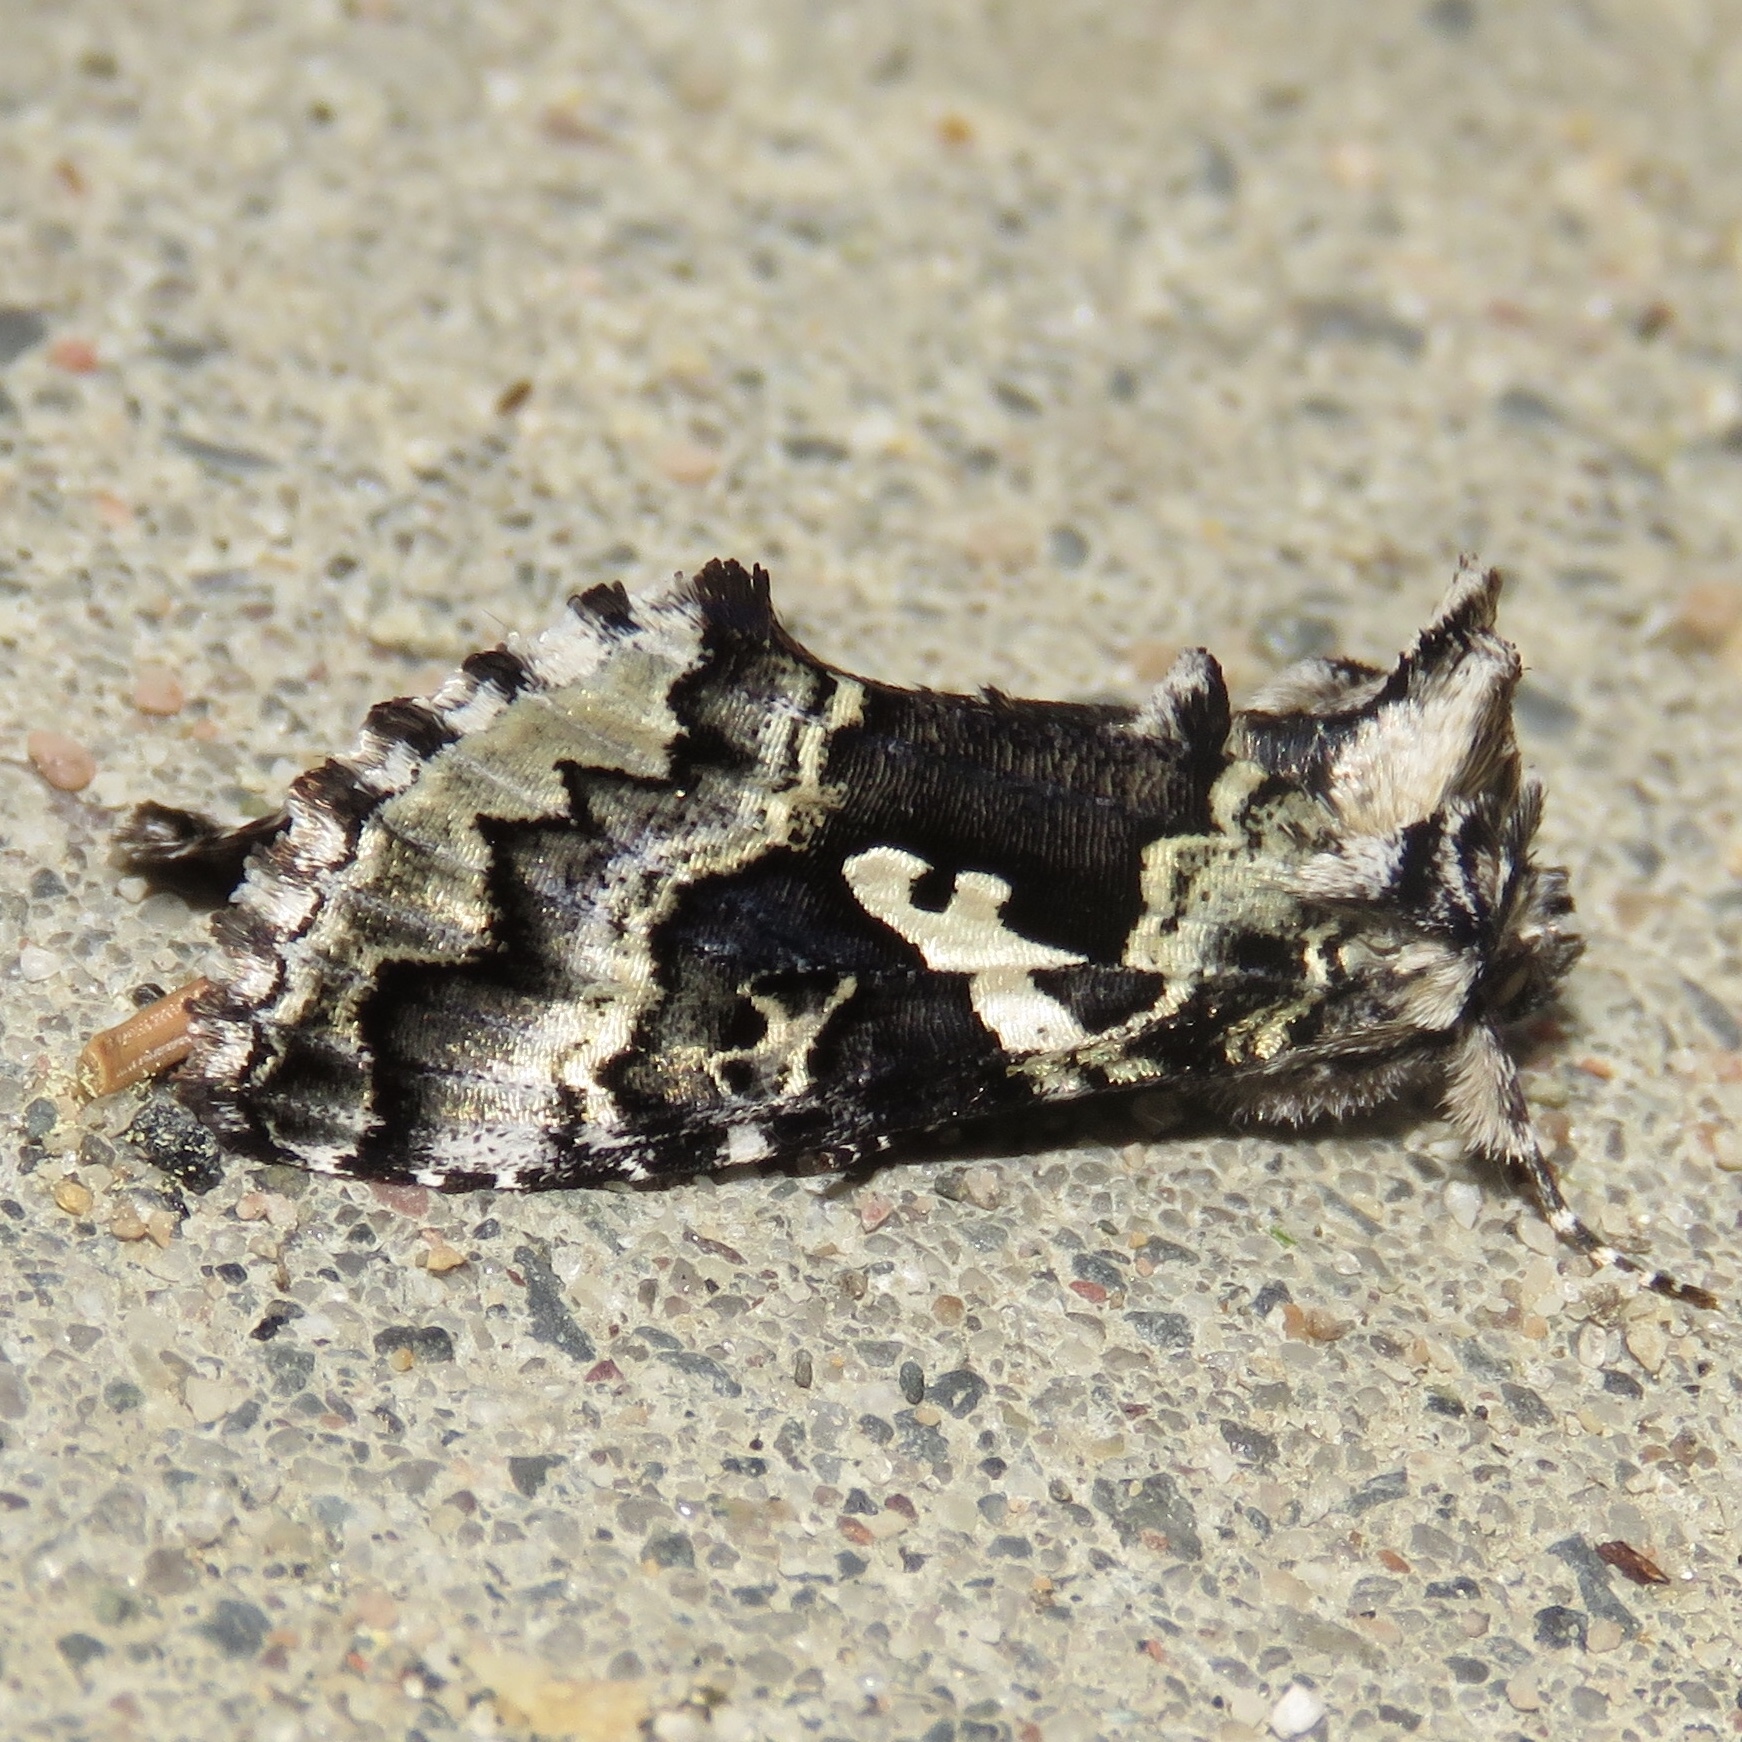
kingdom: Animalia
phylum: Arthropoda
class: Insecta
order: Lepidoptera
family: Noctuidae
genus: Syngrapha
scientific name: Syngrapha rectangula
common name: Angulated cutworm
